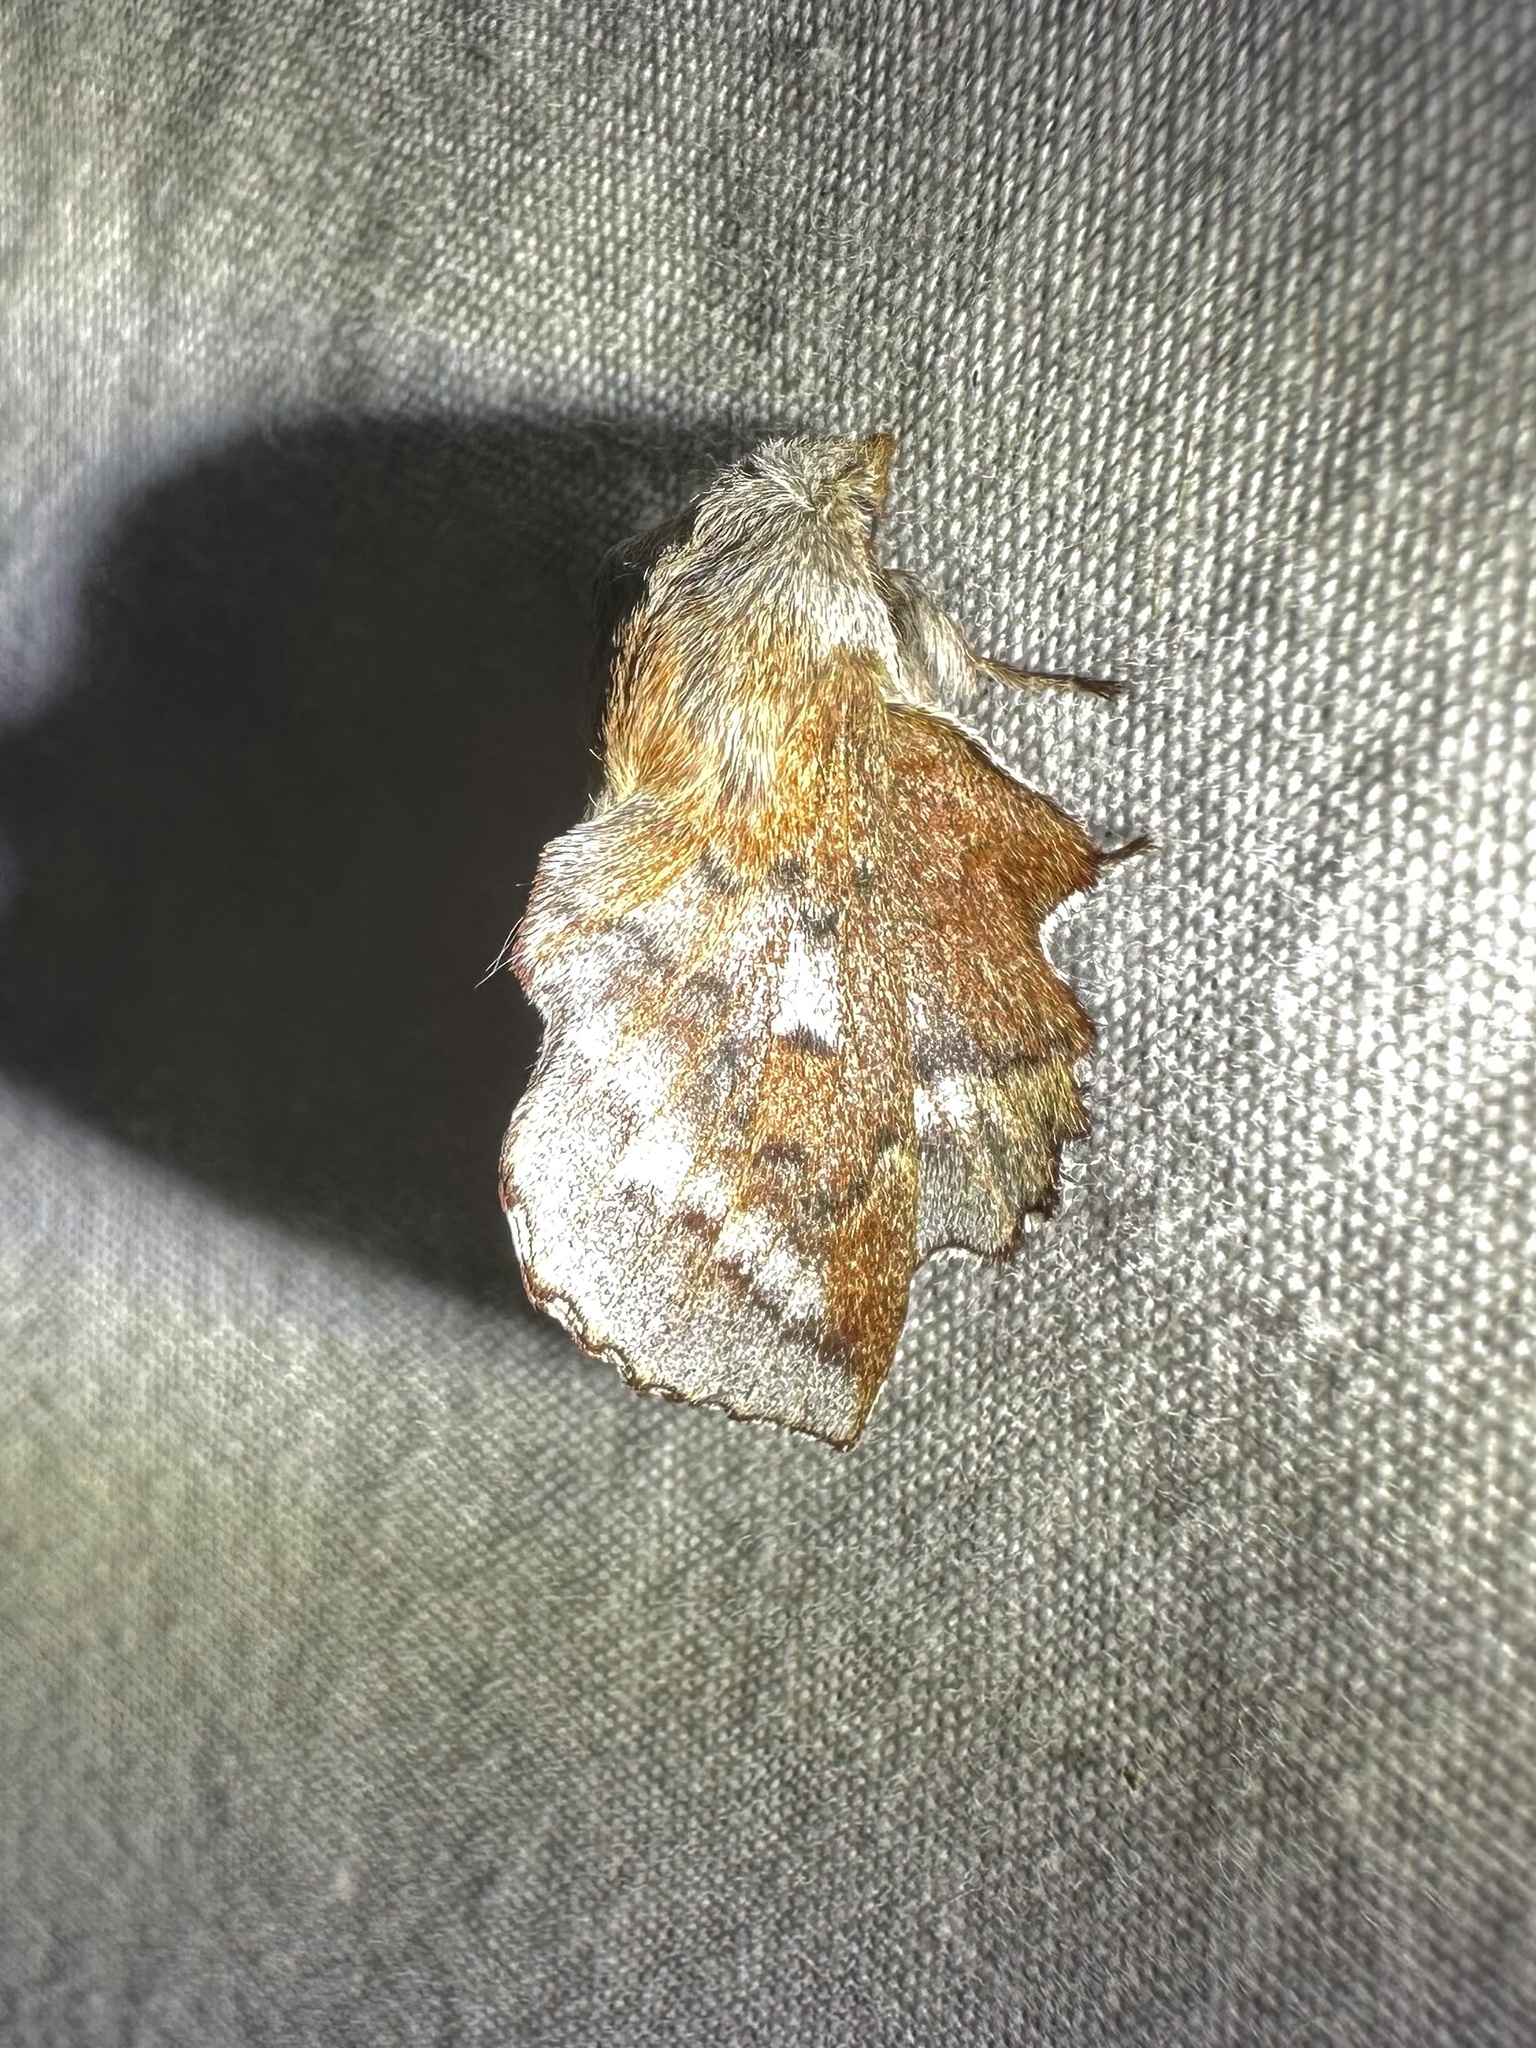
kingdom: Animalia
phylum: Arthropoda
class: Insecta
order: Lepidoptera
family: Lasiocampidae
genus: Phyllodesma
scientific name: Phyllodesma americana
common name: American lappet moth
